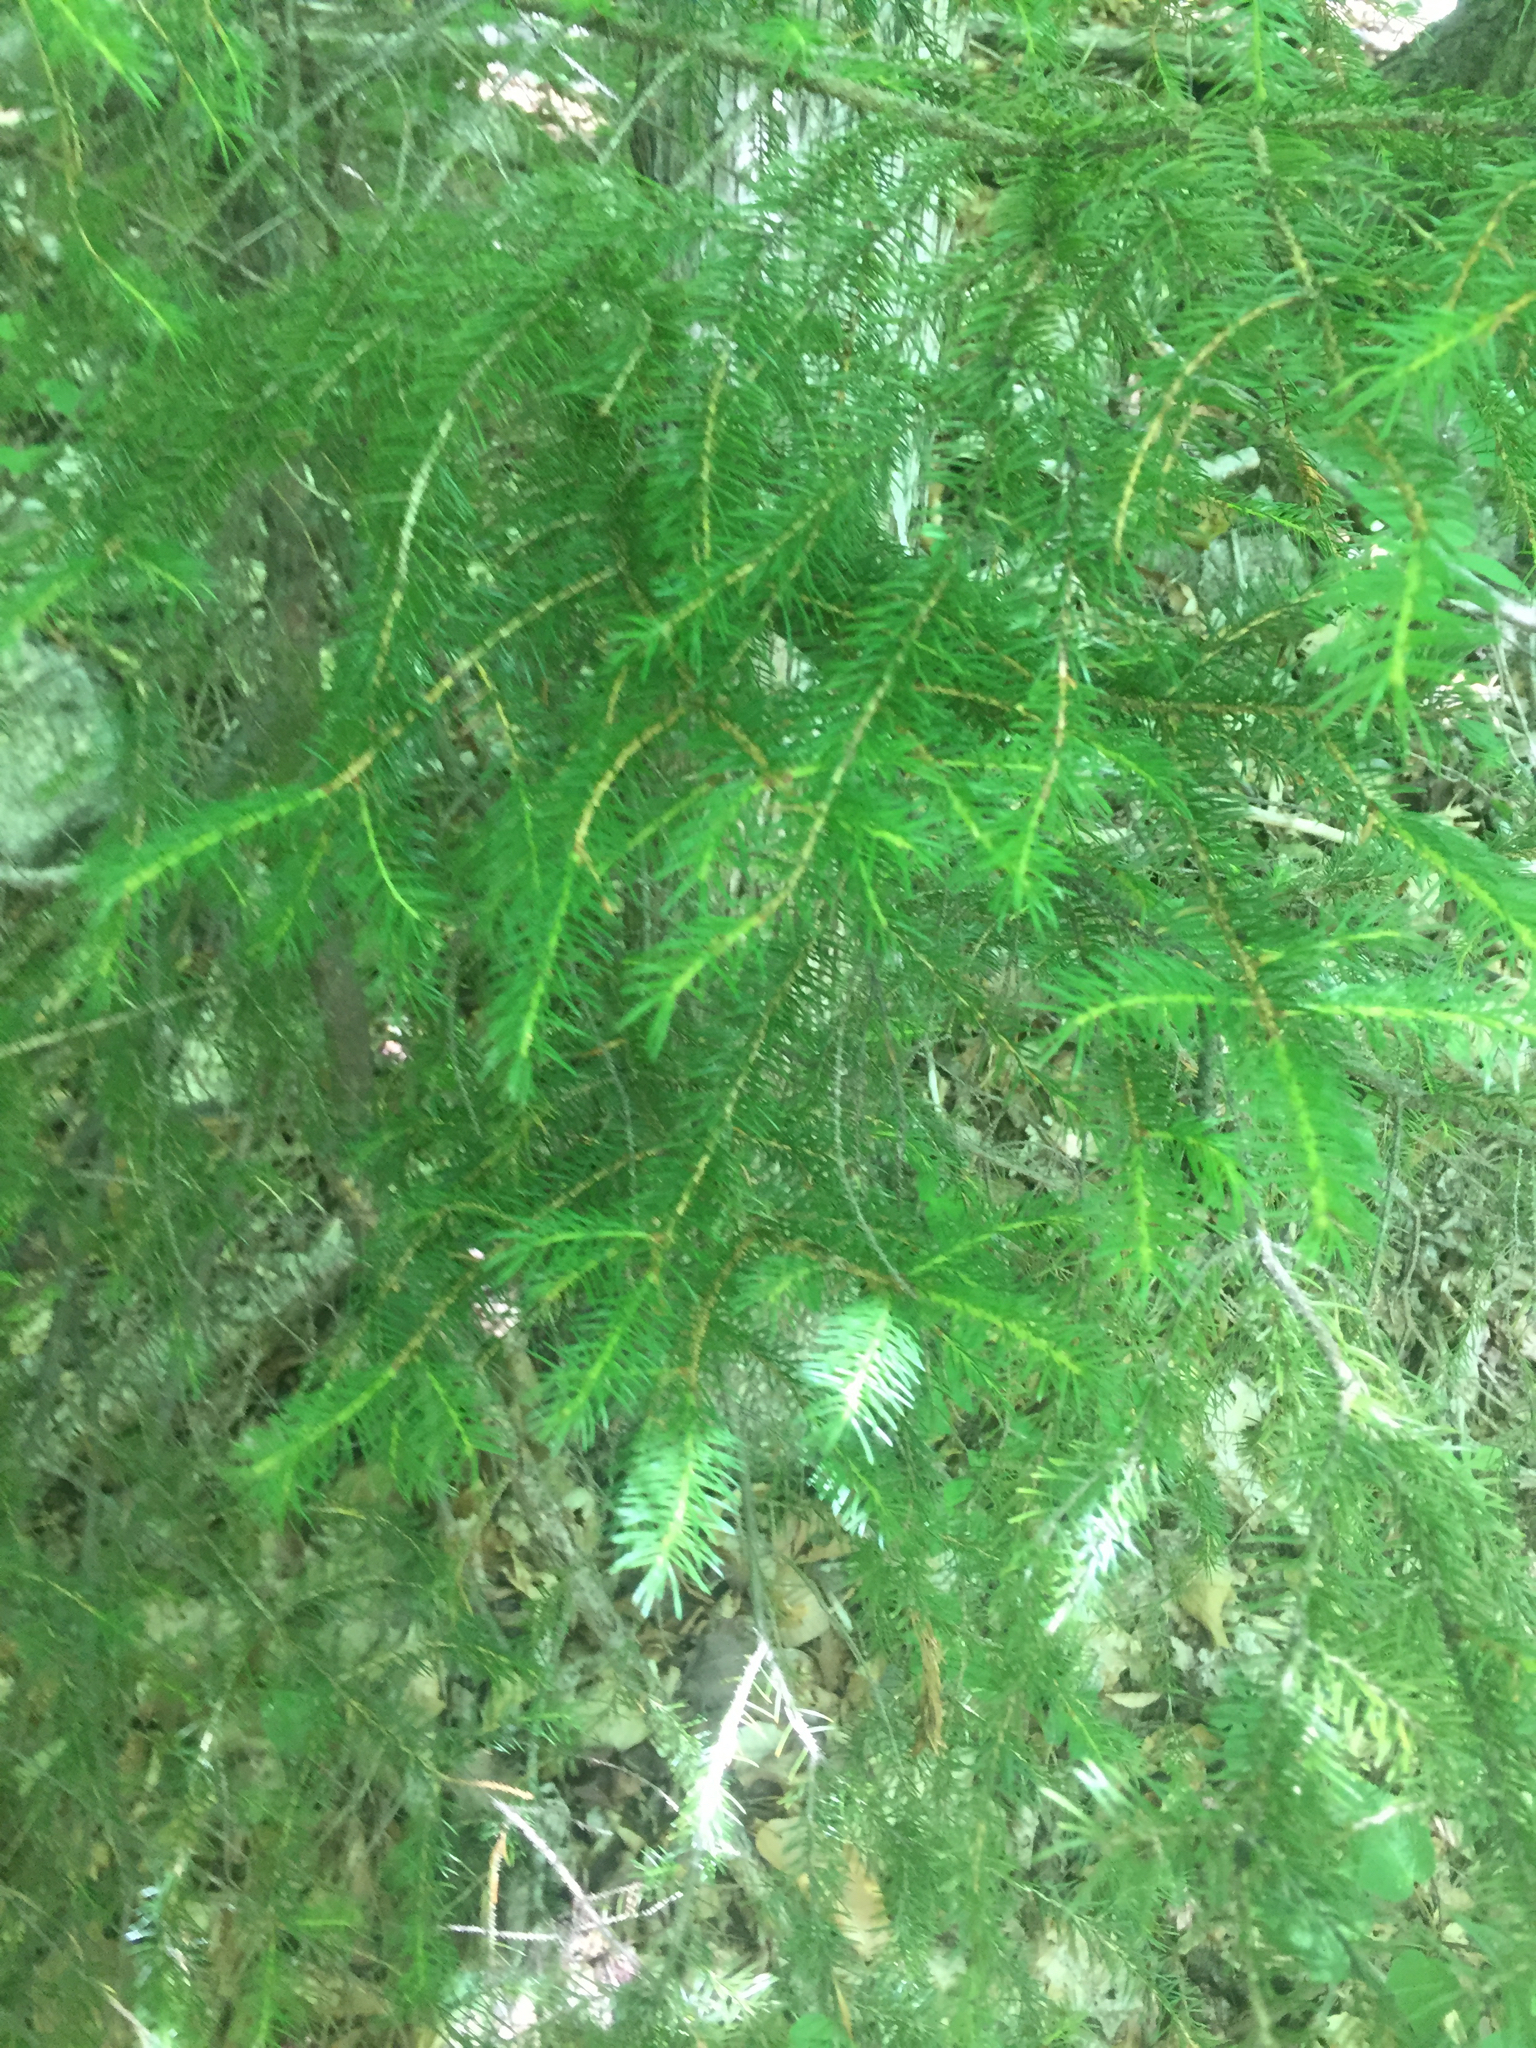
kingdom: Plantae
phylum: Tracheophyta
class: Pinopsida
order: Pinales
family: Pinaceae
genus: Picea
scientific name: Picea rubens
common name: Red spruce
